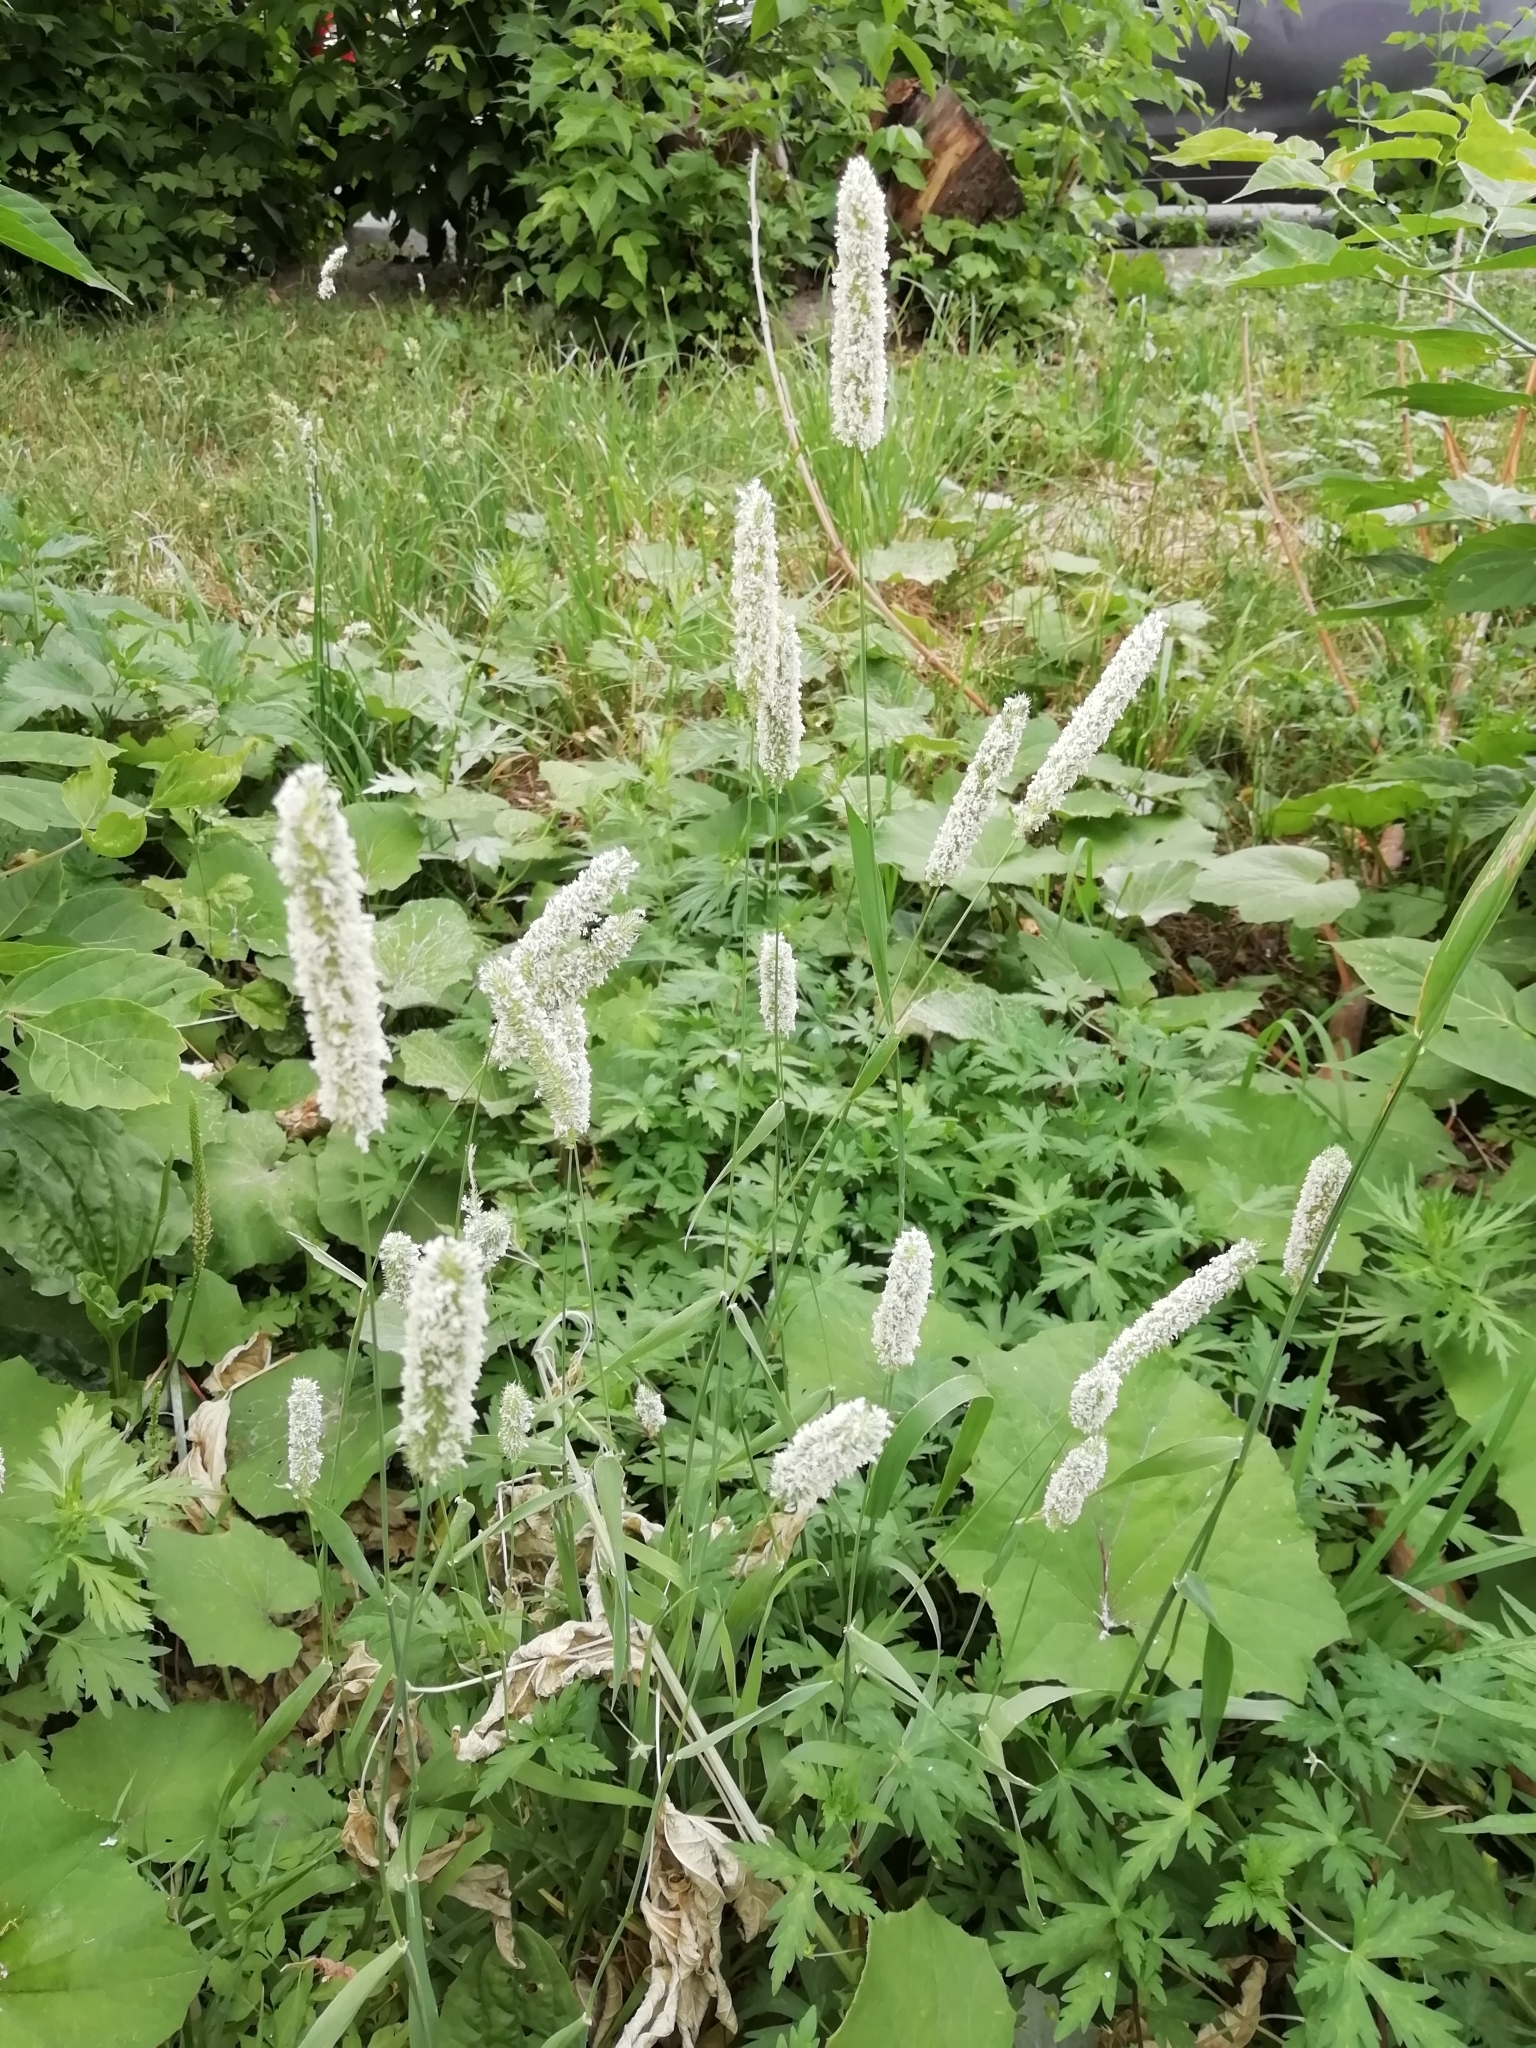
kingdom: Plantae
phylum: Tracheophyta
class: Liliopsida
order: Poales
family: Poaceae
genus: Phleum
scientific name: Phleum pratense
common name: Timothy grass
